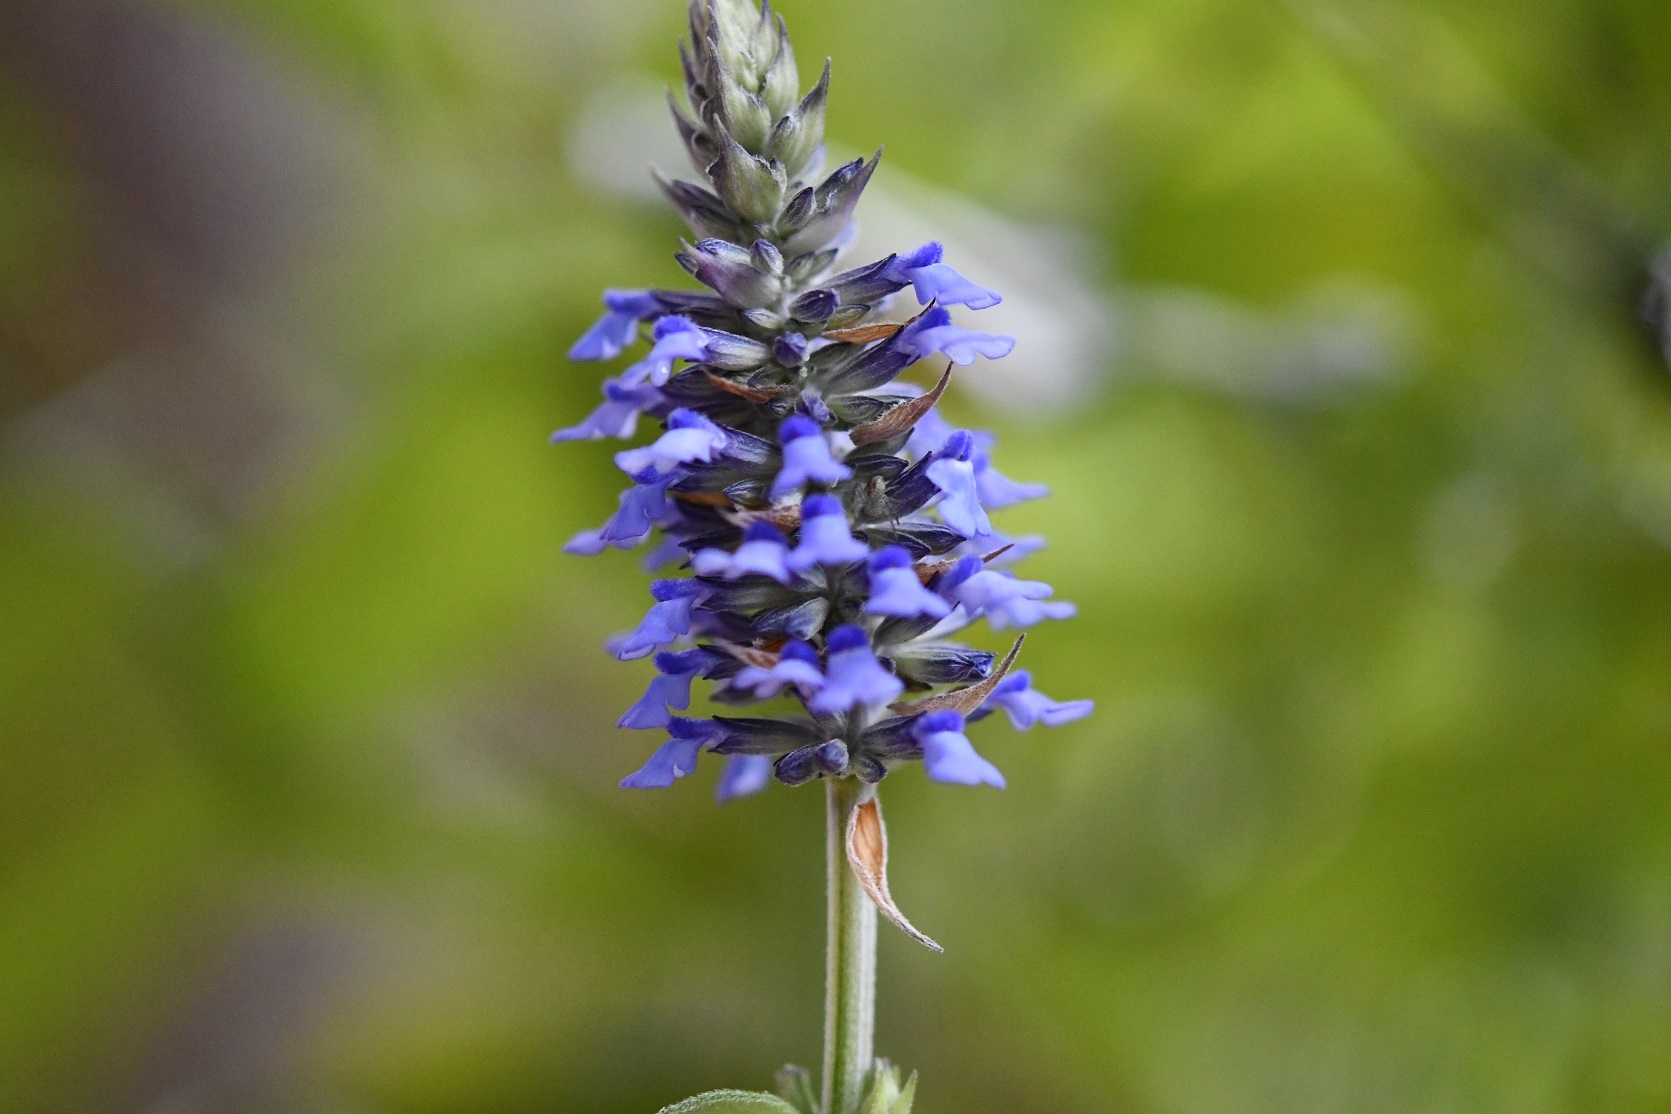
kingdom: Plantae
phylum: Tracheophyta
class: Magnoliopsida
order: Lamiales
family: Lamiaceae
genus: Salvia
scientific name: Salvia lavanduloides
